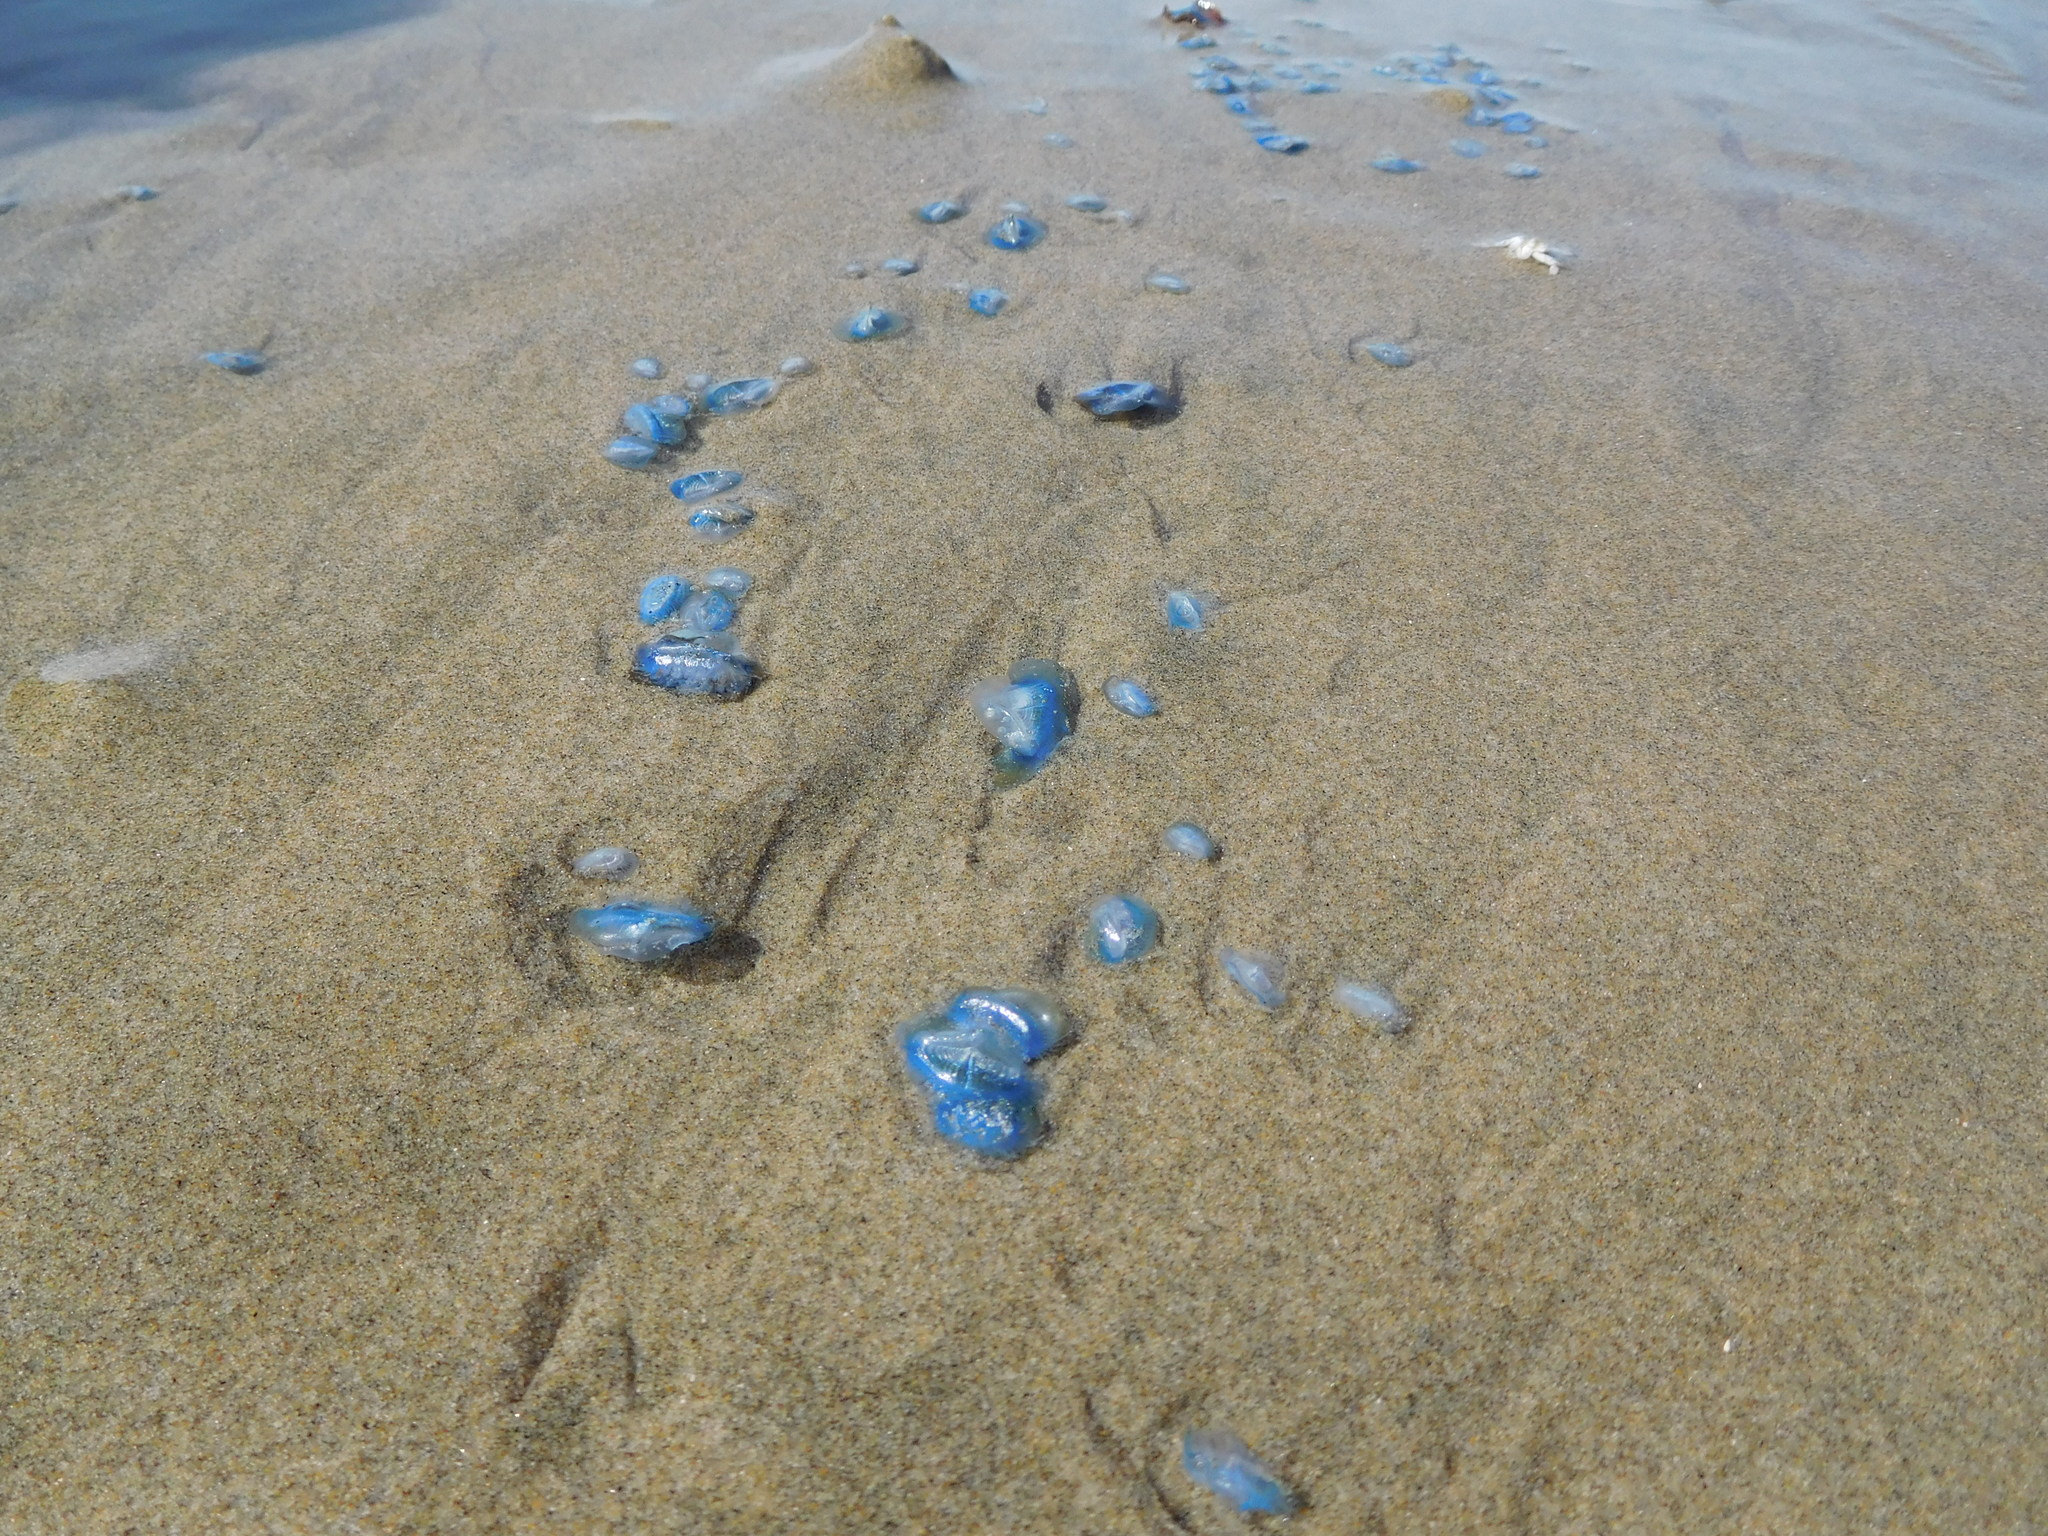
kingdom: Animalia
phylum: Cnidaria
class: Hydrozoa
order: Anthoathecata
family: Porpitidae
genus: Velella
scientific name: Velella velella
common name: By-the-wind-sailor
